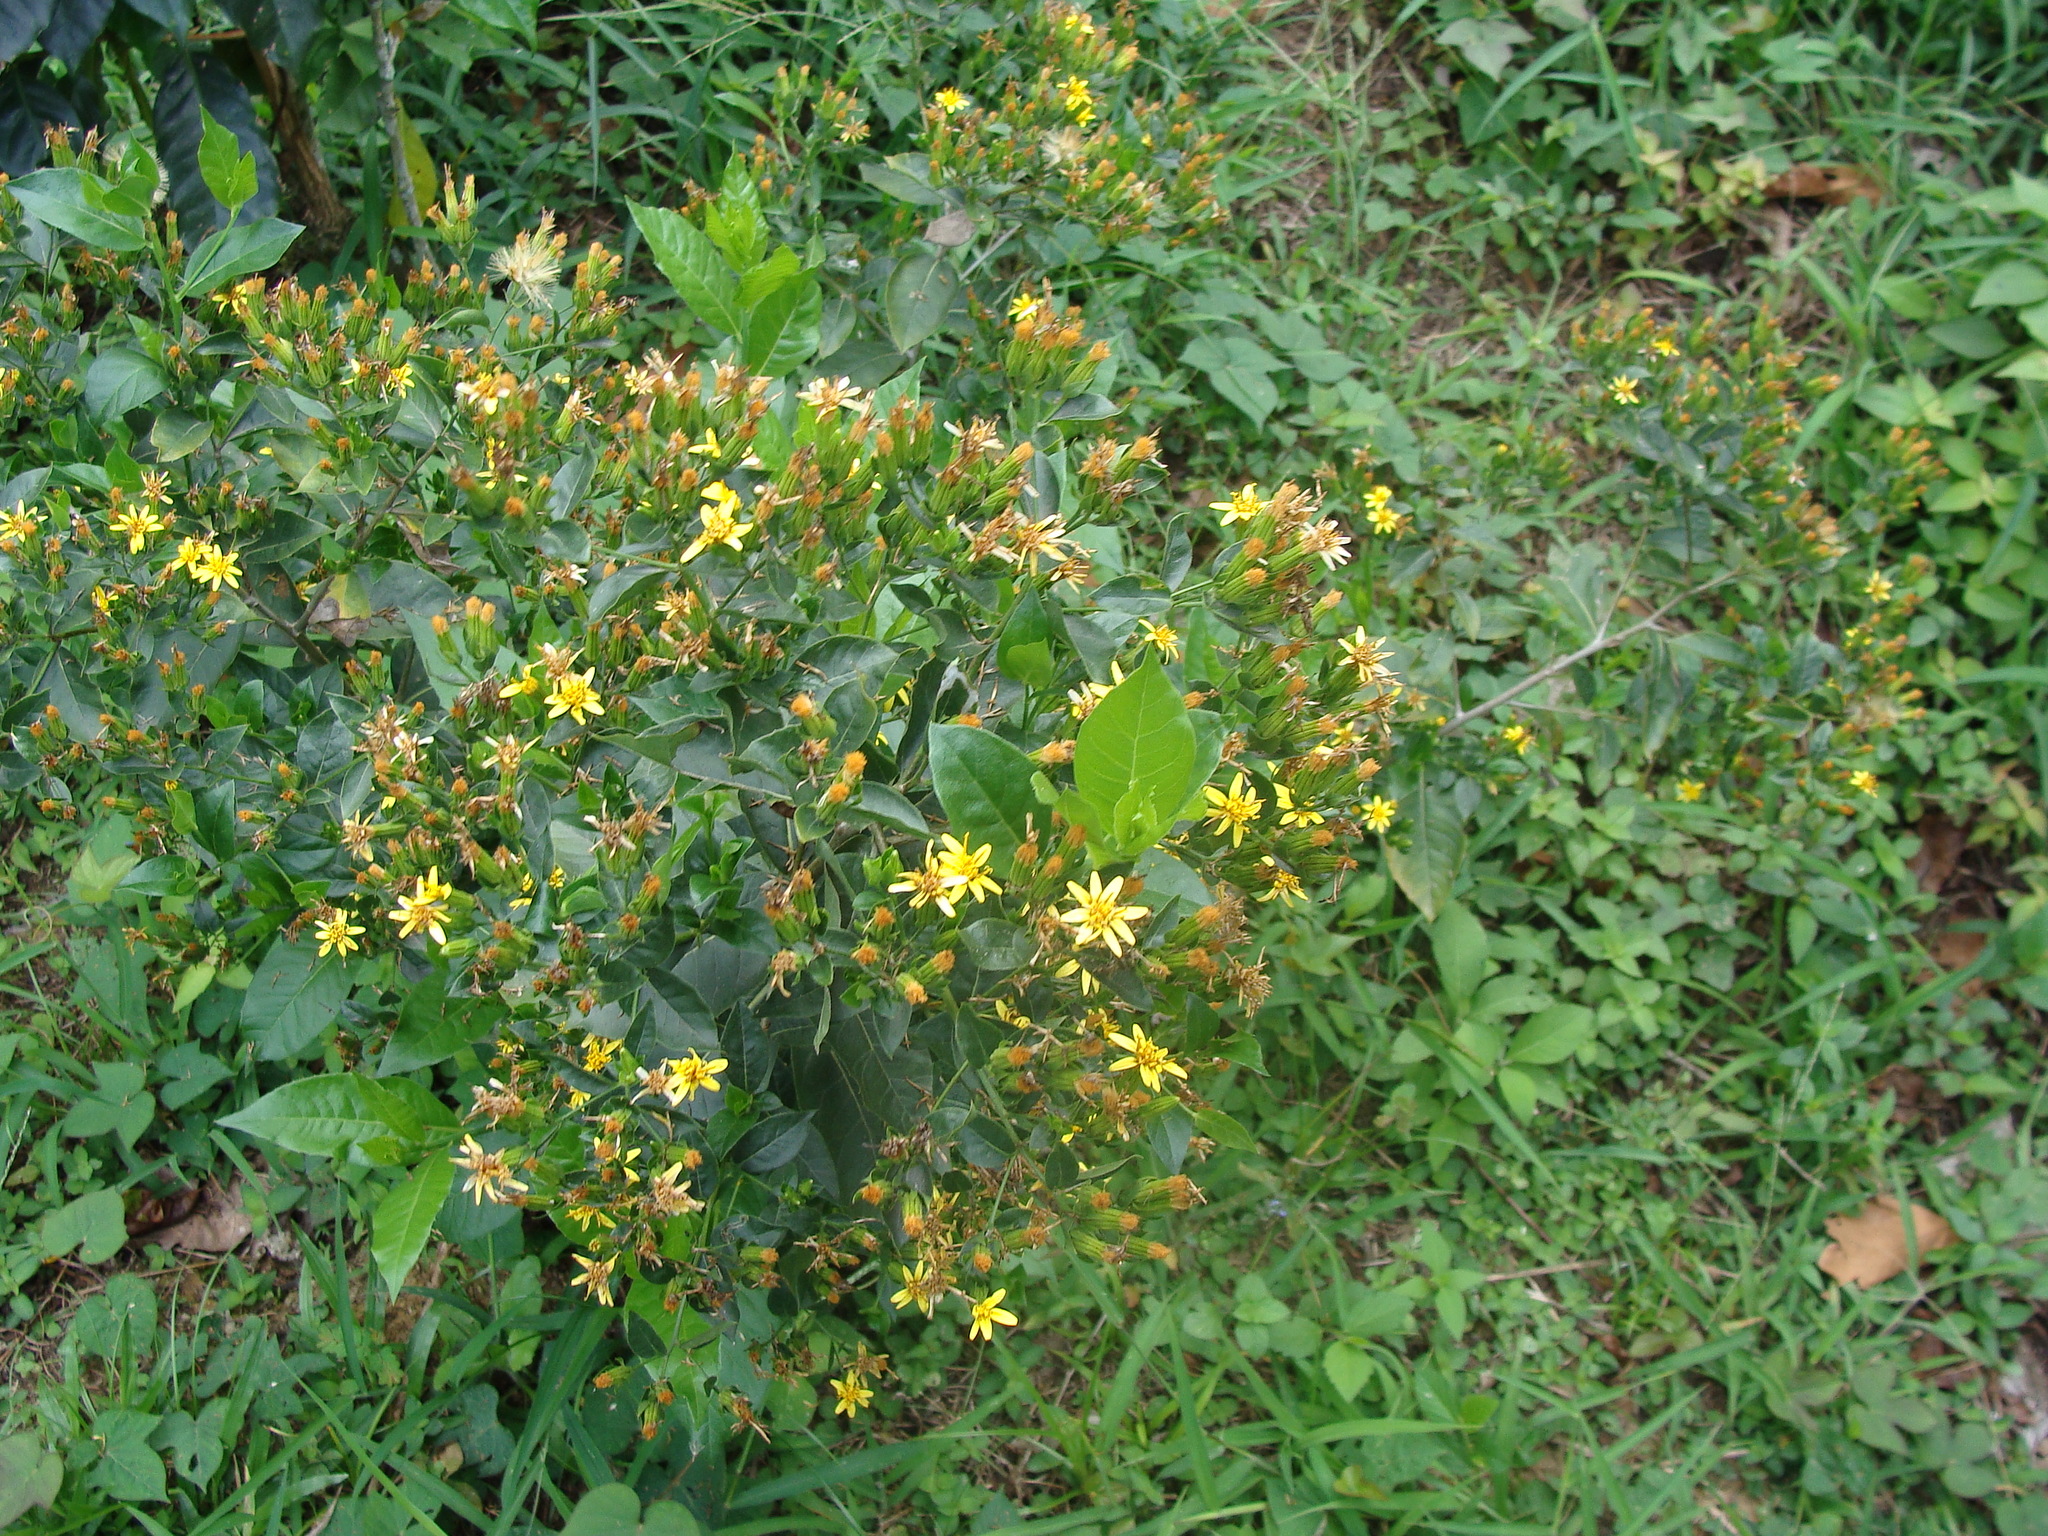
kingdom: Plantae
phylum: Tracheophyta
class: Magnoliopsida
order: Asterales
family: Asteraceae
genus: Trixis
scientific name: Trixis inula
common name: Tropical threefold
